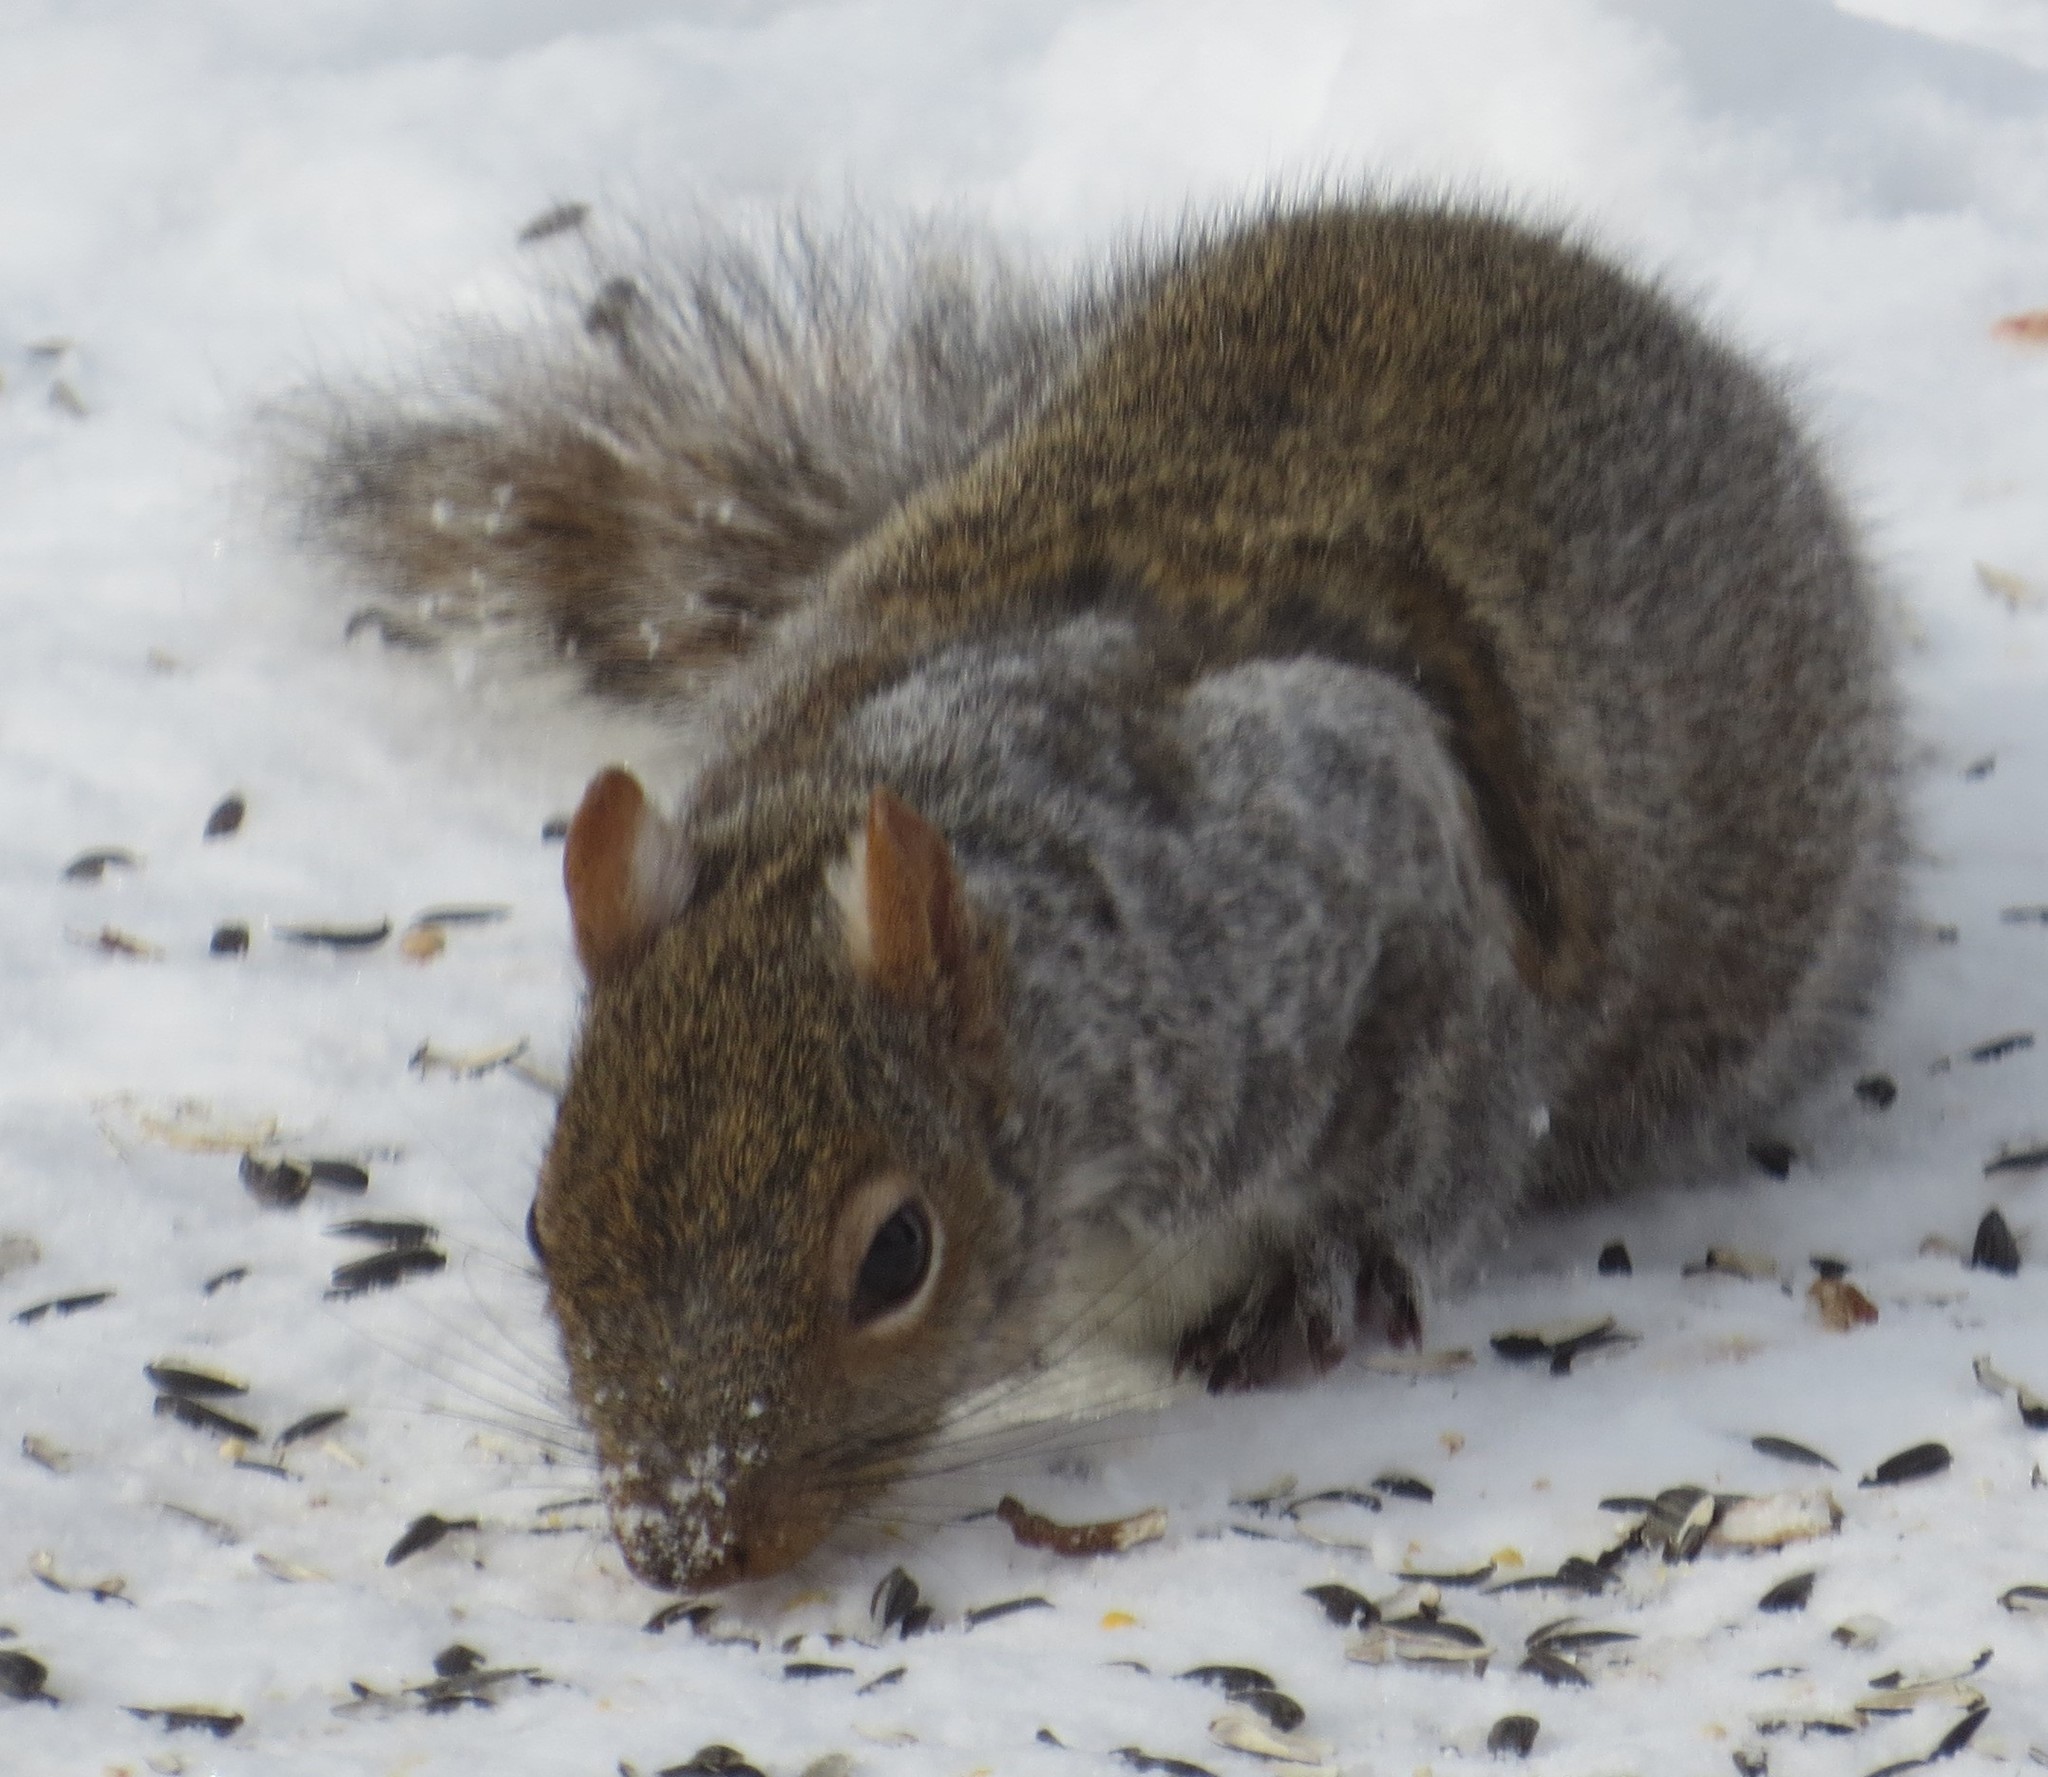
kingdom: Animalia
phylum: Chordata
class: Mammalia
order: Rodentia
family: Sciuridae
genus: Sciurus
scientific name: Sciurus carolinensis
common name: Eastern gray squirrel
